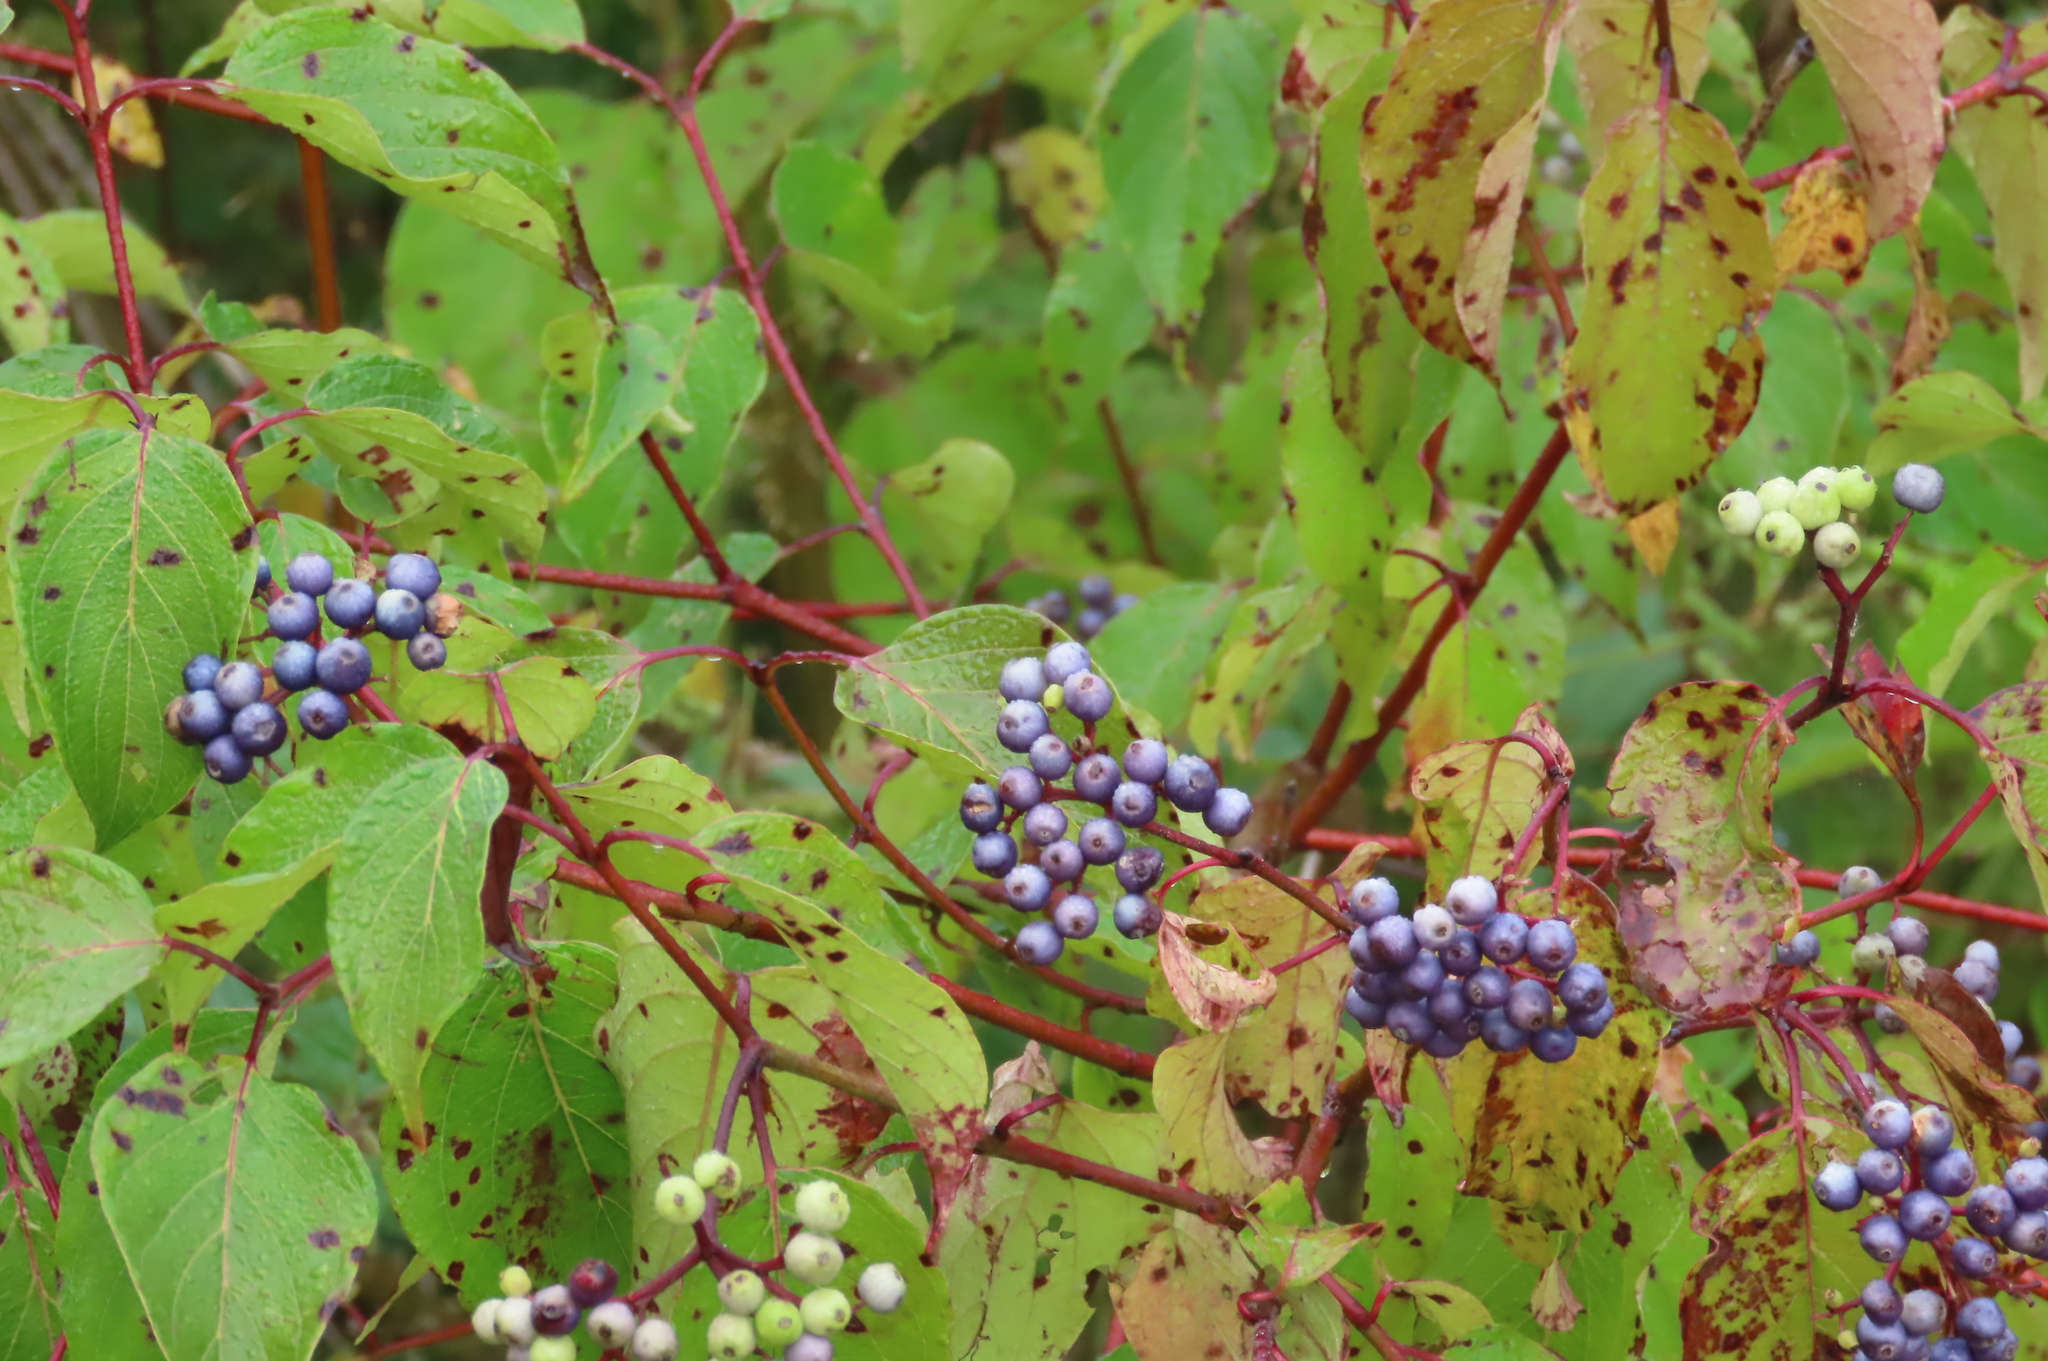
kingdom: Plantae
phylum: Tracheophyta
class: Magnoliopsida
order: Cornales
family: Cornaceae
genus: Cornus
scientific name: Cornus amomum
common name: Silky dogwood
